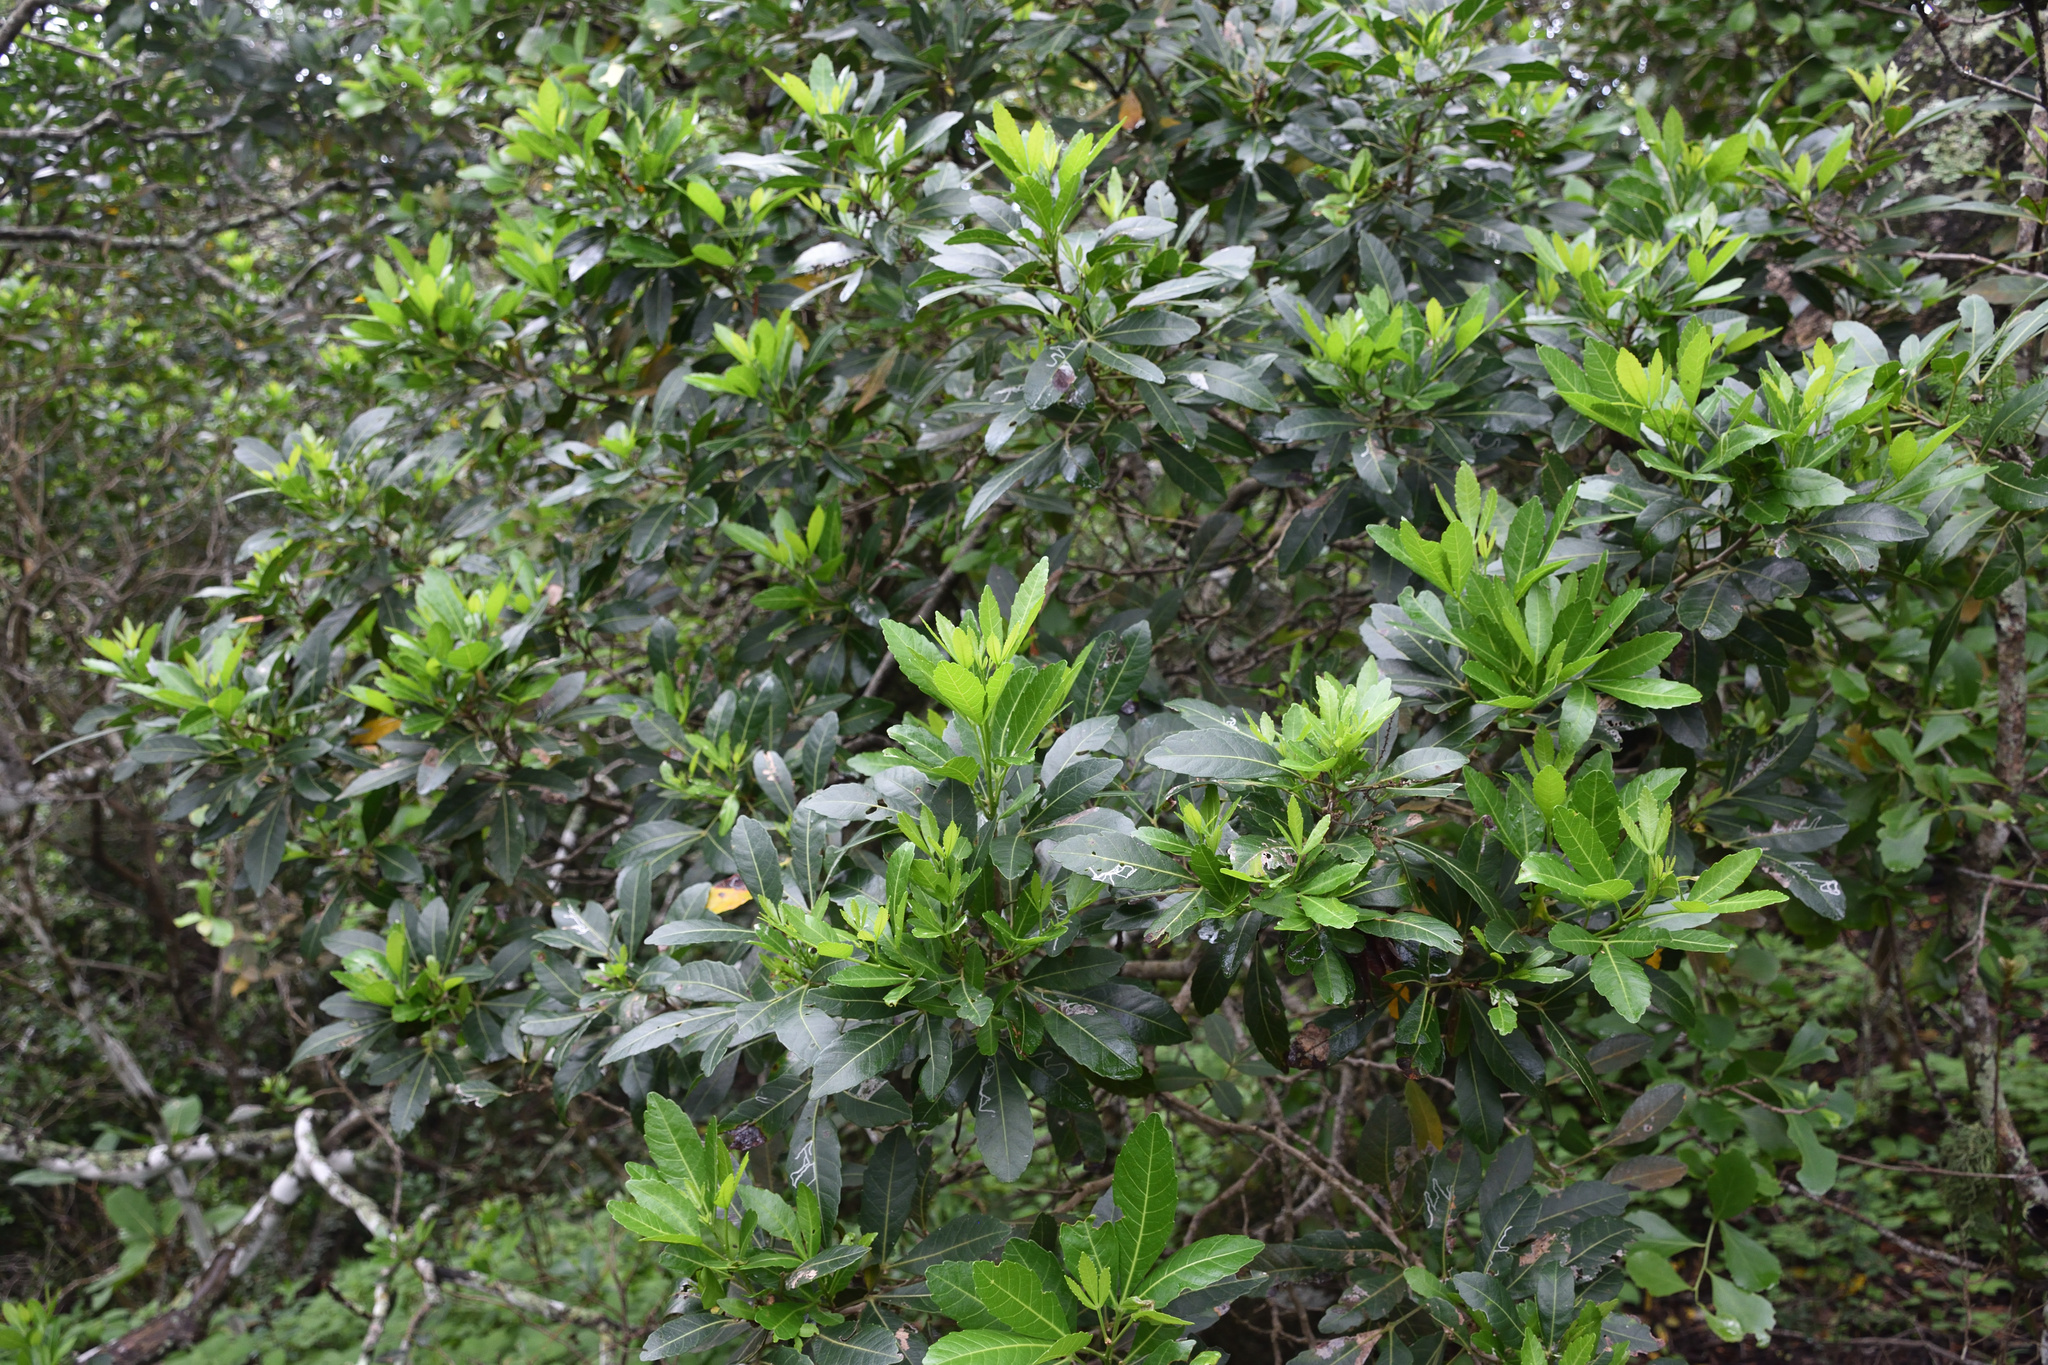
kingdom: Plantae
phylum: Tracheophyta
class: Magnoliopsida
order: Sapindales
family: Sapindaceae
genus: Allophylus
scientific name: Allophylus natalensis
